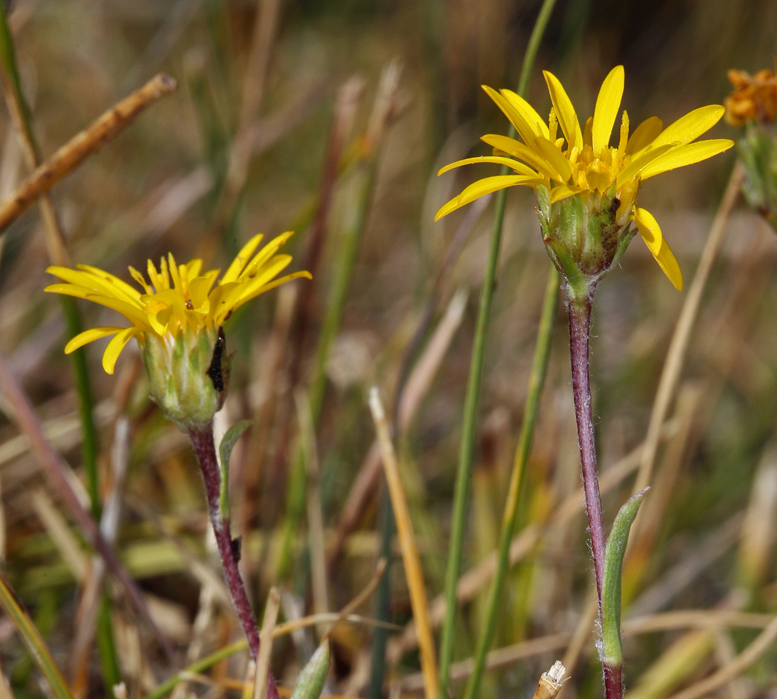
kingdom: Plantae
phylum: Tracheophyta
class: Magnoliopsida
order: Asterales
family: Asteraceae
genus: Pyrrocoma
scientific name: Pyrrocoma uniflora
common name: Plantain goldenweed
